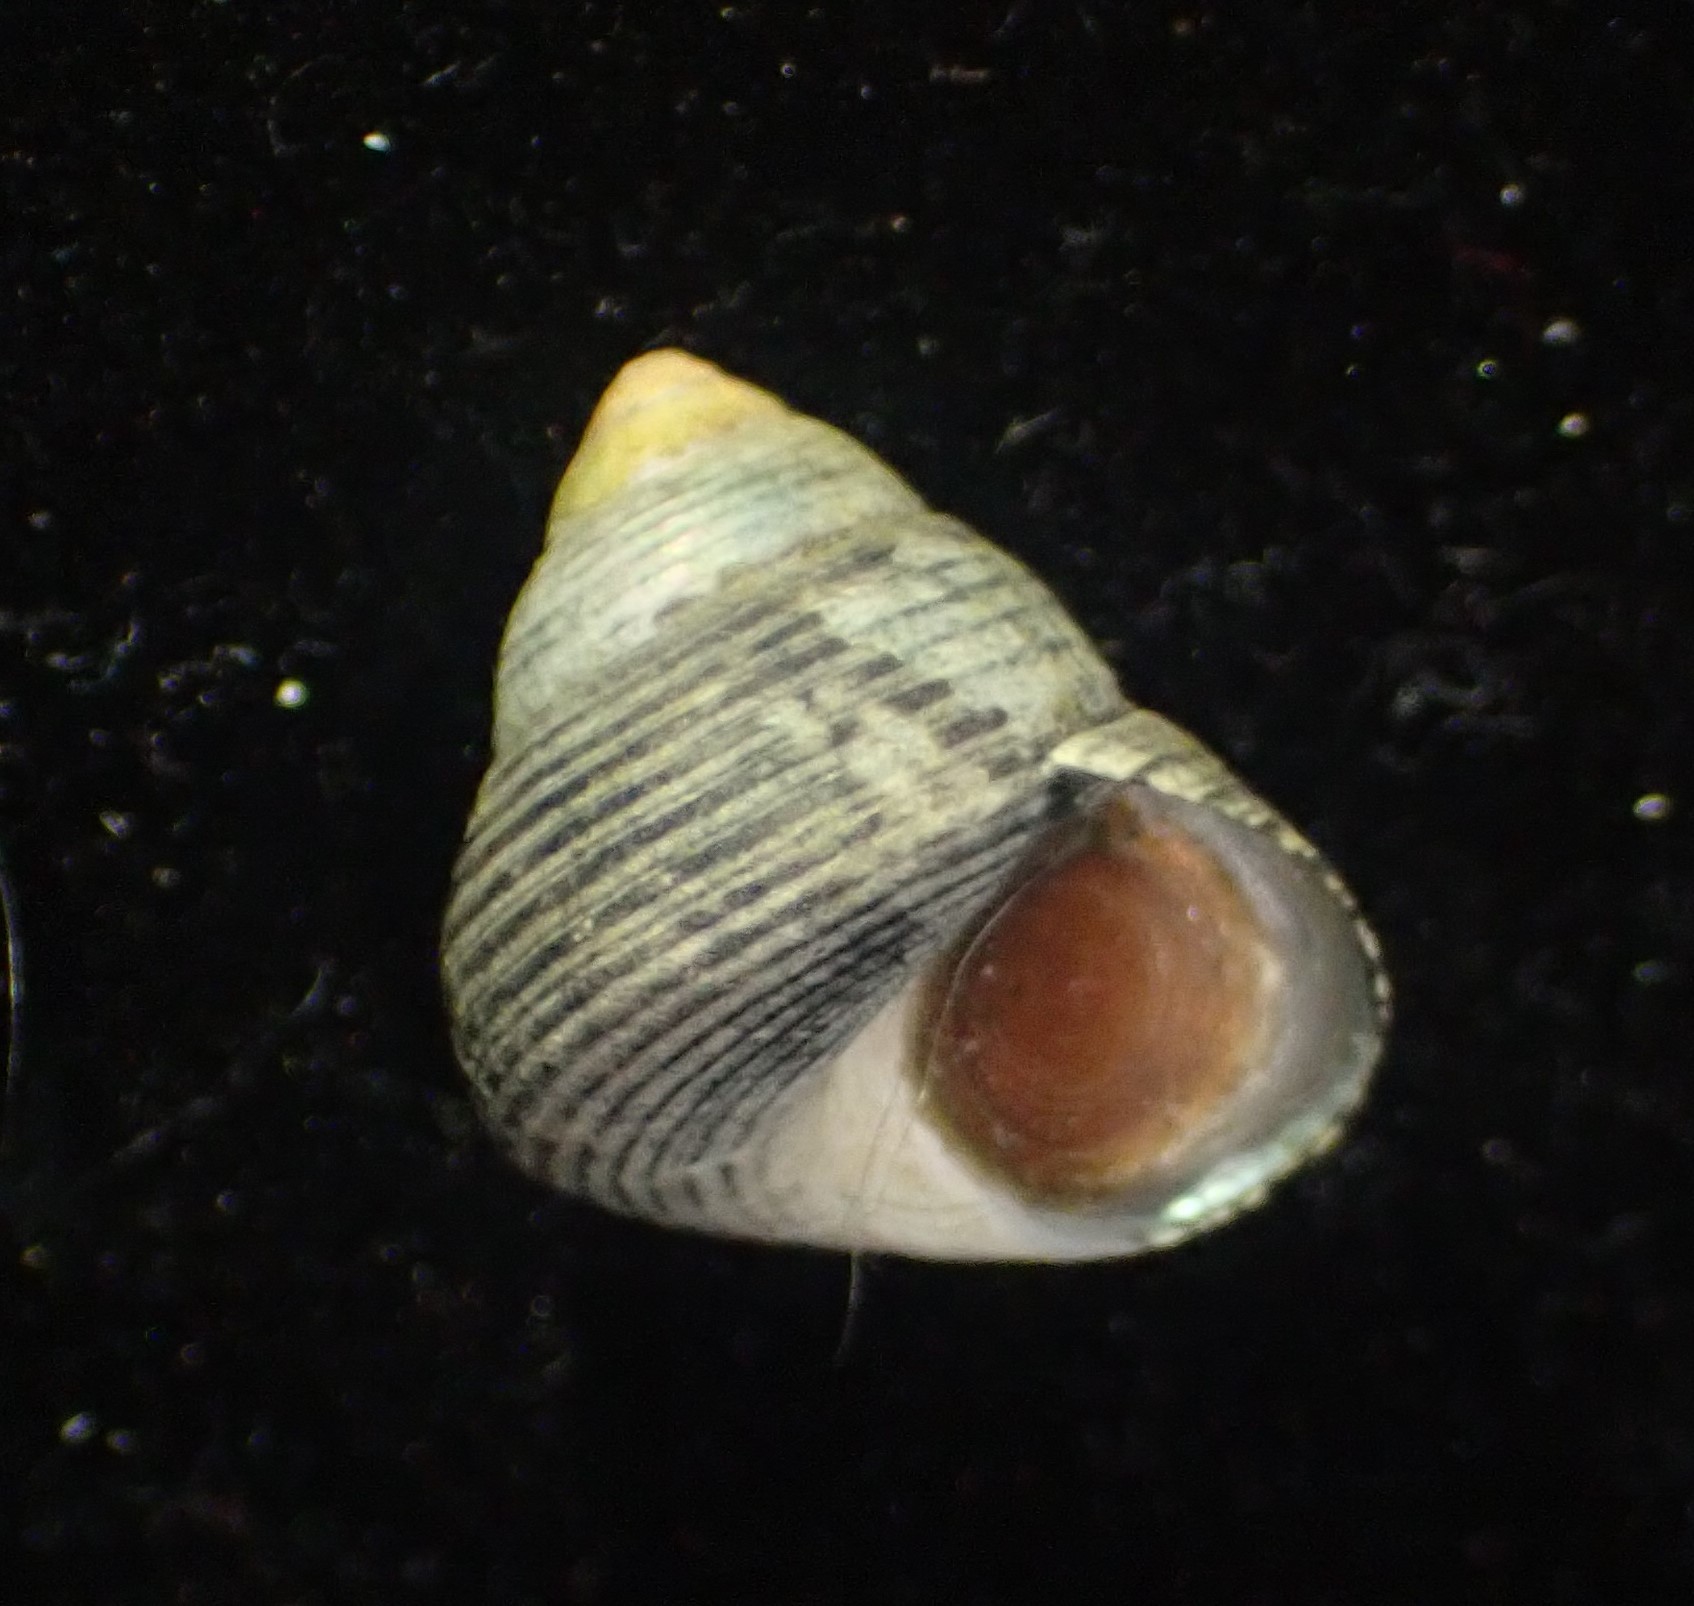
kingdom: Animalia
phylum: Mollusca
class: Gastropoda
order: Trochida
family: Trochidae
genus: Micrelenchus
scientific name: Micrelenchus huttonii
